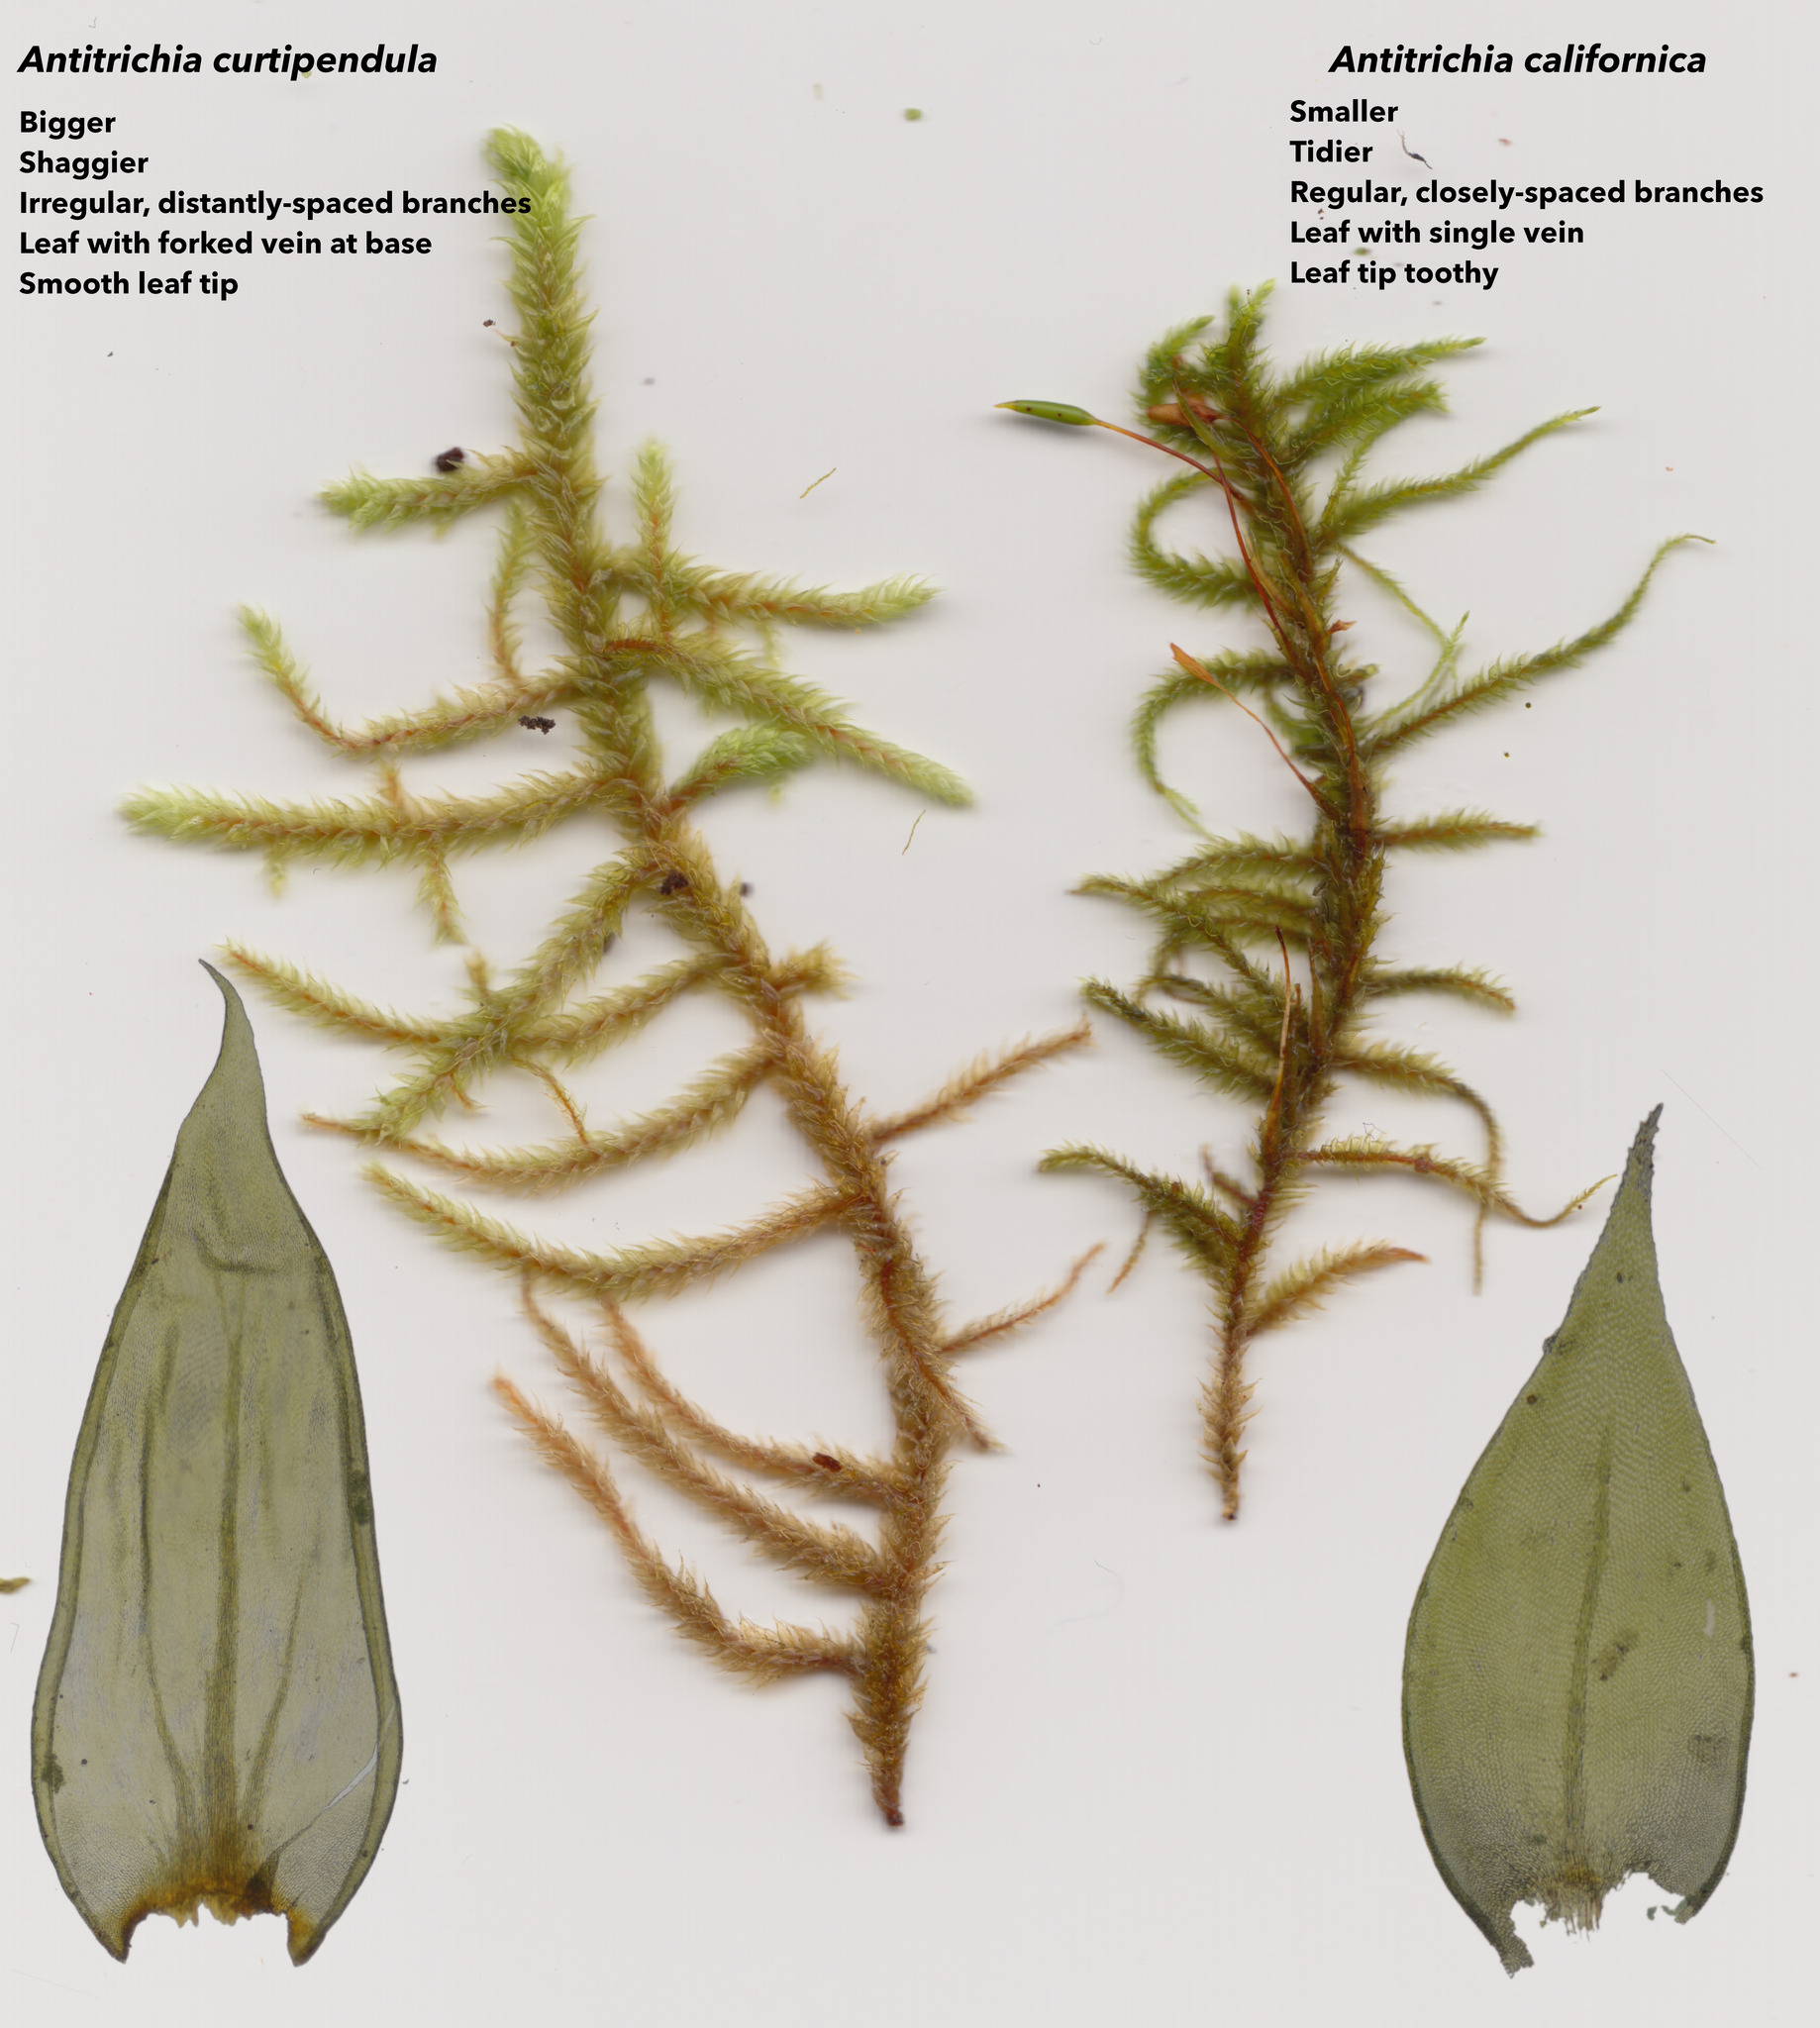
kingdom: Plantae
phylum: Bryophyta
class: Bryopsida
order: Hypnales
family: Antitrichiaceae
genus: Antitrichia
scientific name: Antitrichia curtipendula
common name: Pendulous wing-moss
